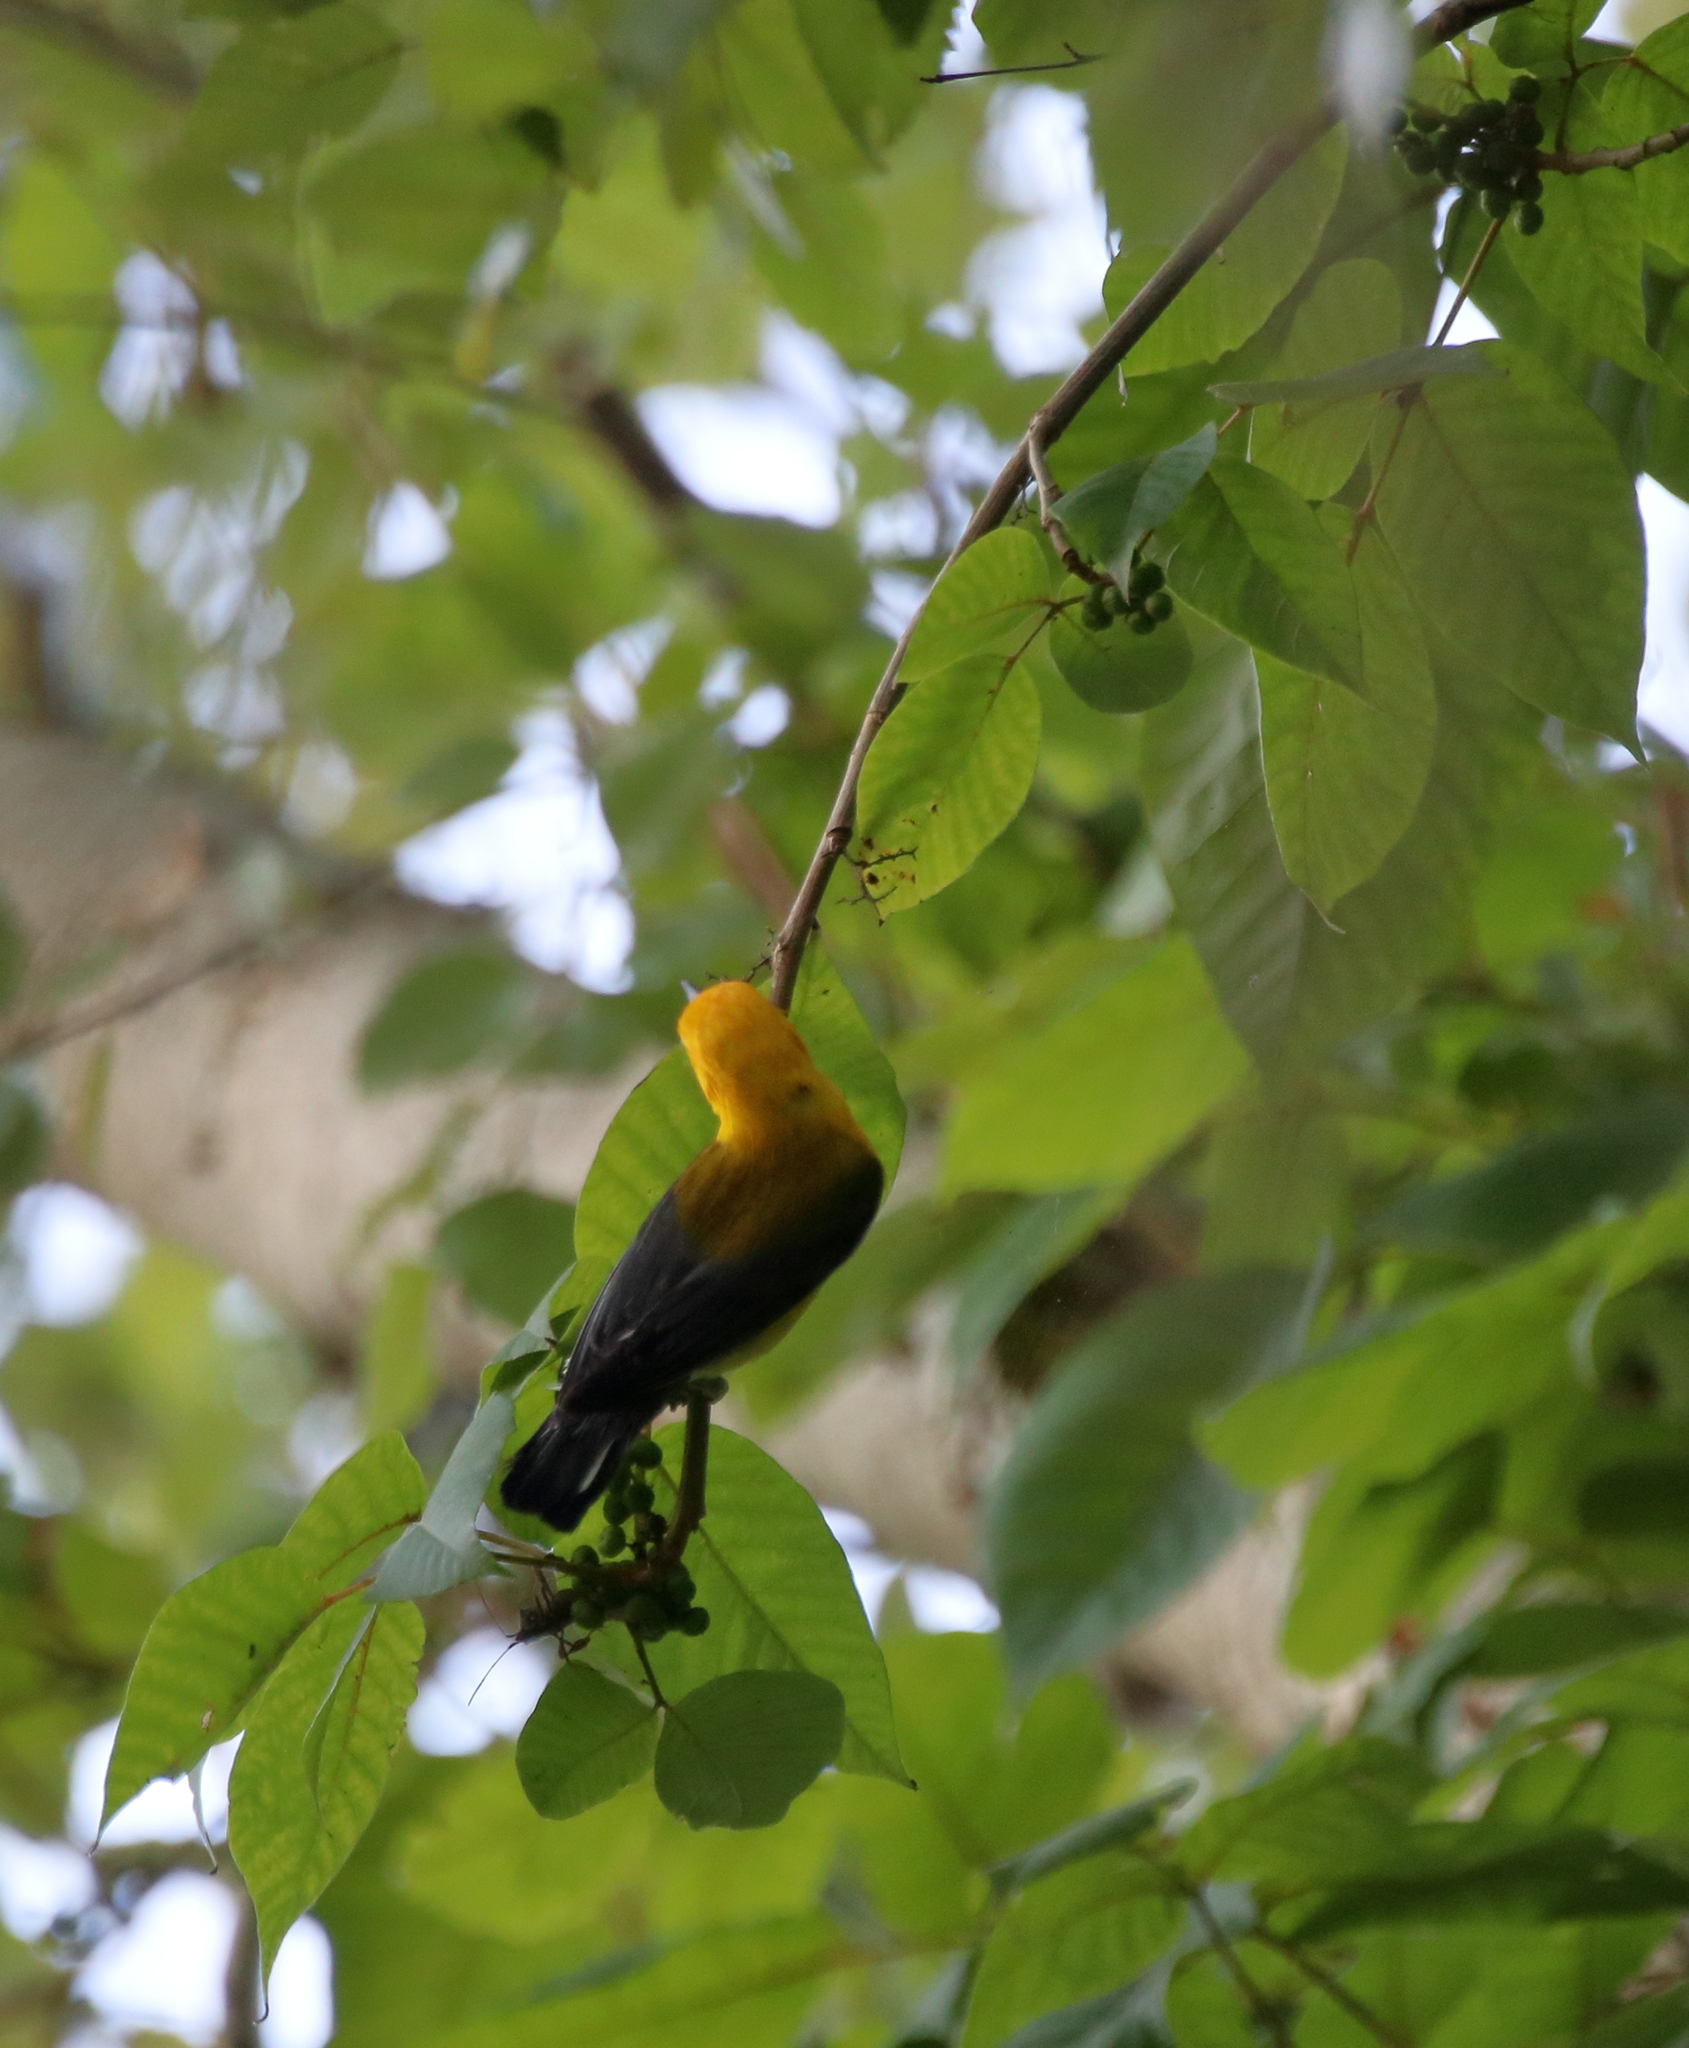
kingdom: Animalia
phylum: Chordata
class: Aves
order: Passeriformes
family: Parulidae
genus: Protonotaria
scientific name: Protonotaria citrea
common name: Prothonotary warbler
